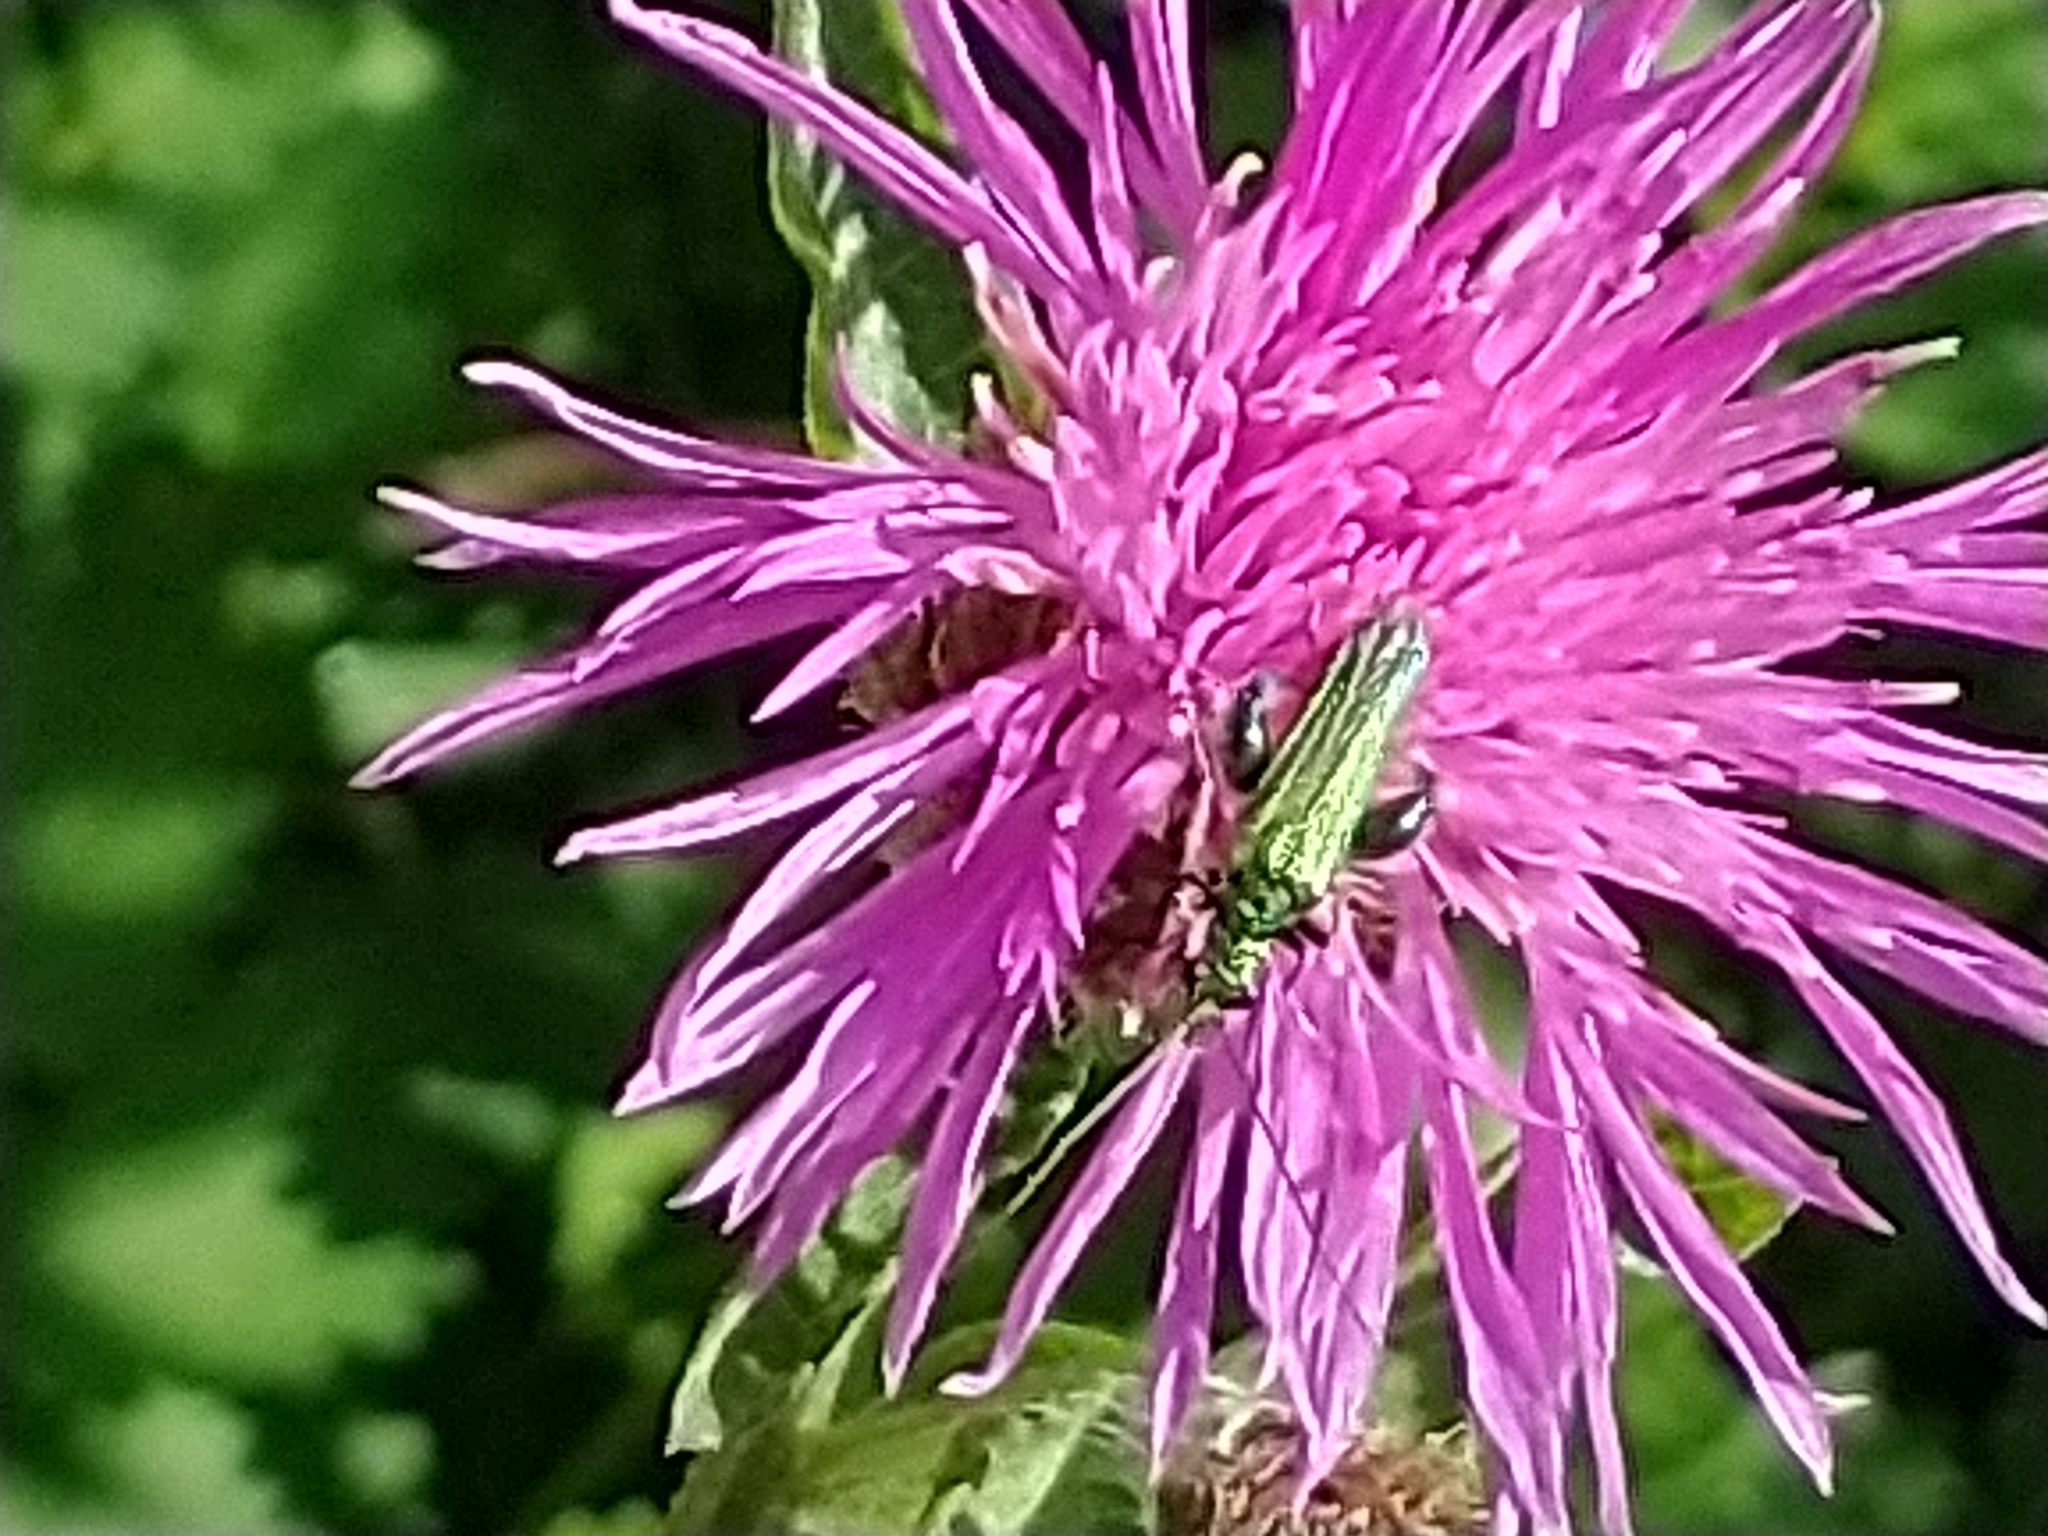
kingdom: Animalia
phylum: Arthropoda
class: Insecta
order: Coleoptera
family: Oedemeridae
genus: Oedemera
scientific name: Oedemera nobilis
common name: Swollen-thighed beetle
